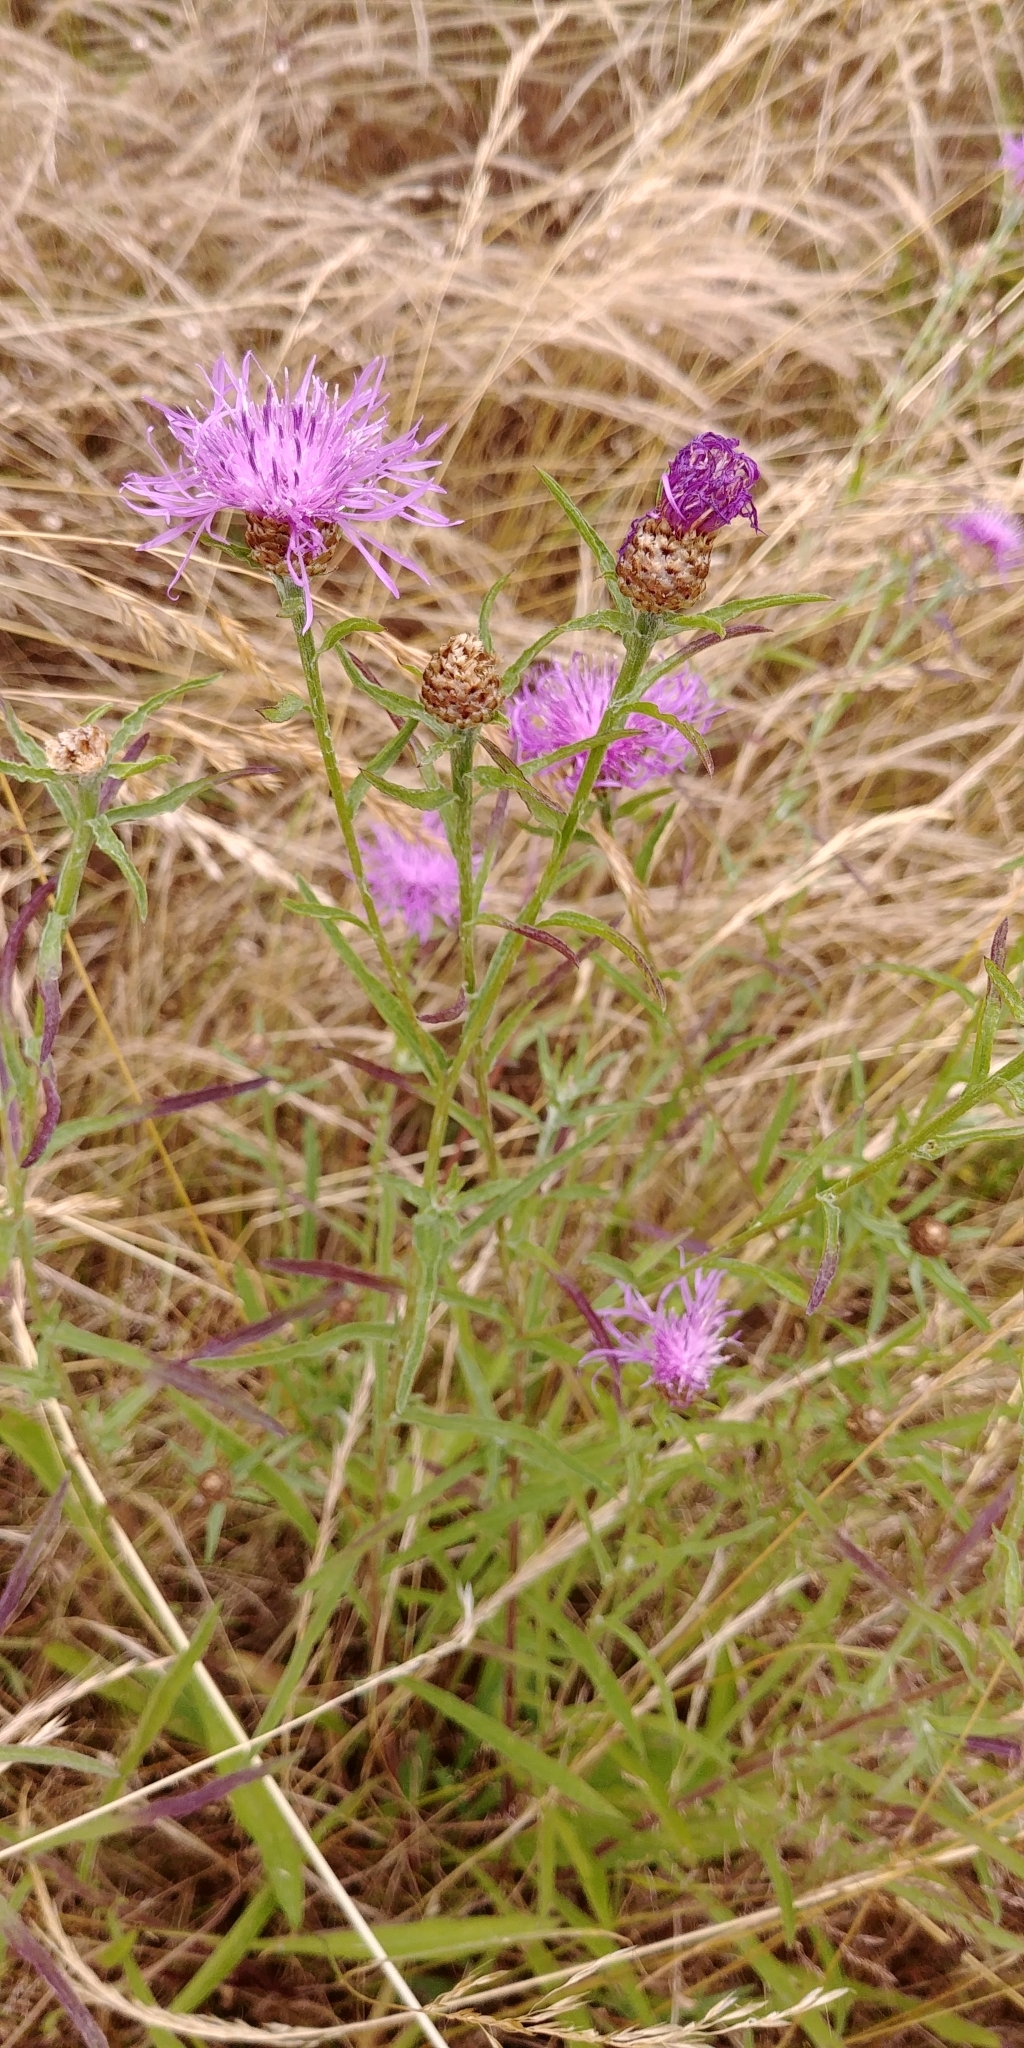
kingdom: Plantae
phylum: Tracheophyta
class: Magnoliopsida
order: Asterales
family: Asteraceae
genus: Centaurea
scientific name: Centaurea jacea
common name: Brown knapweed
